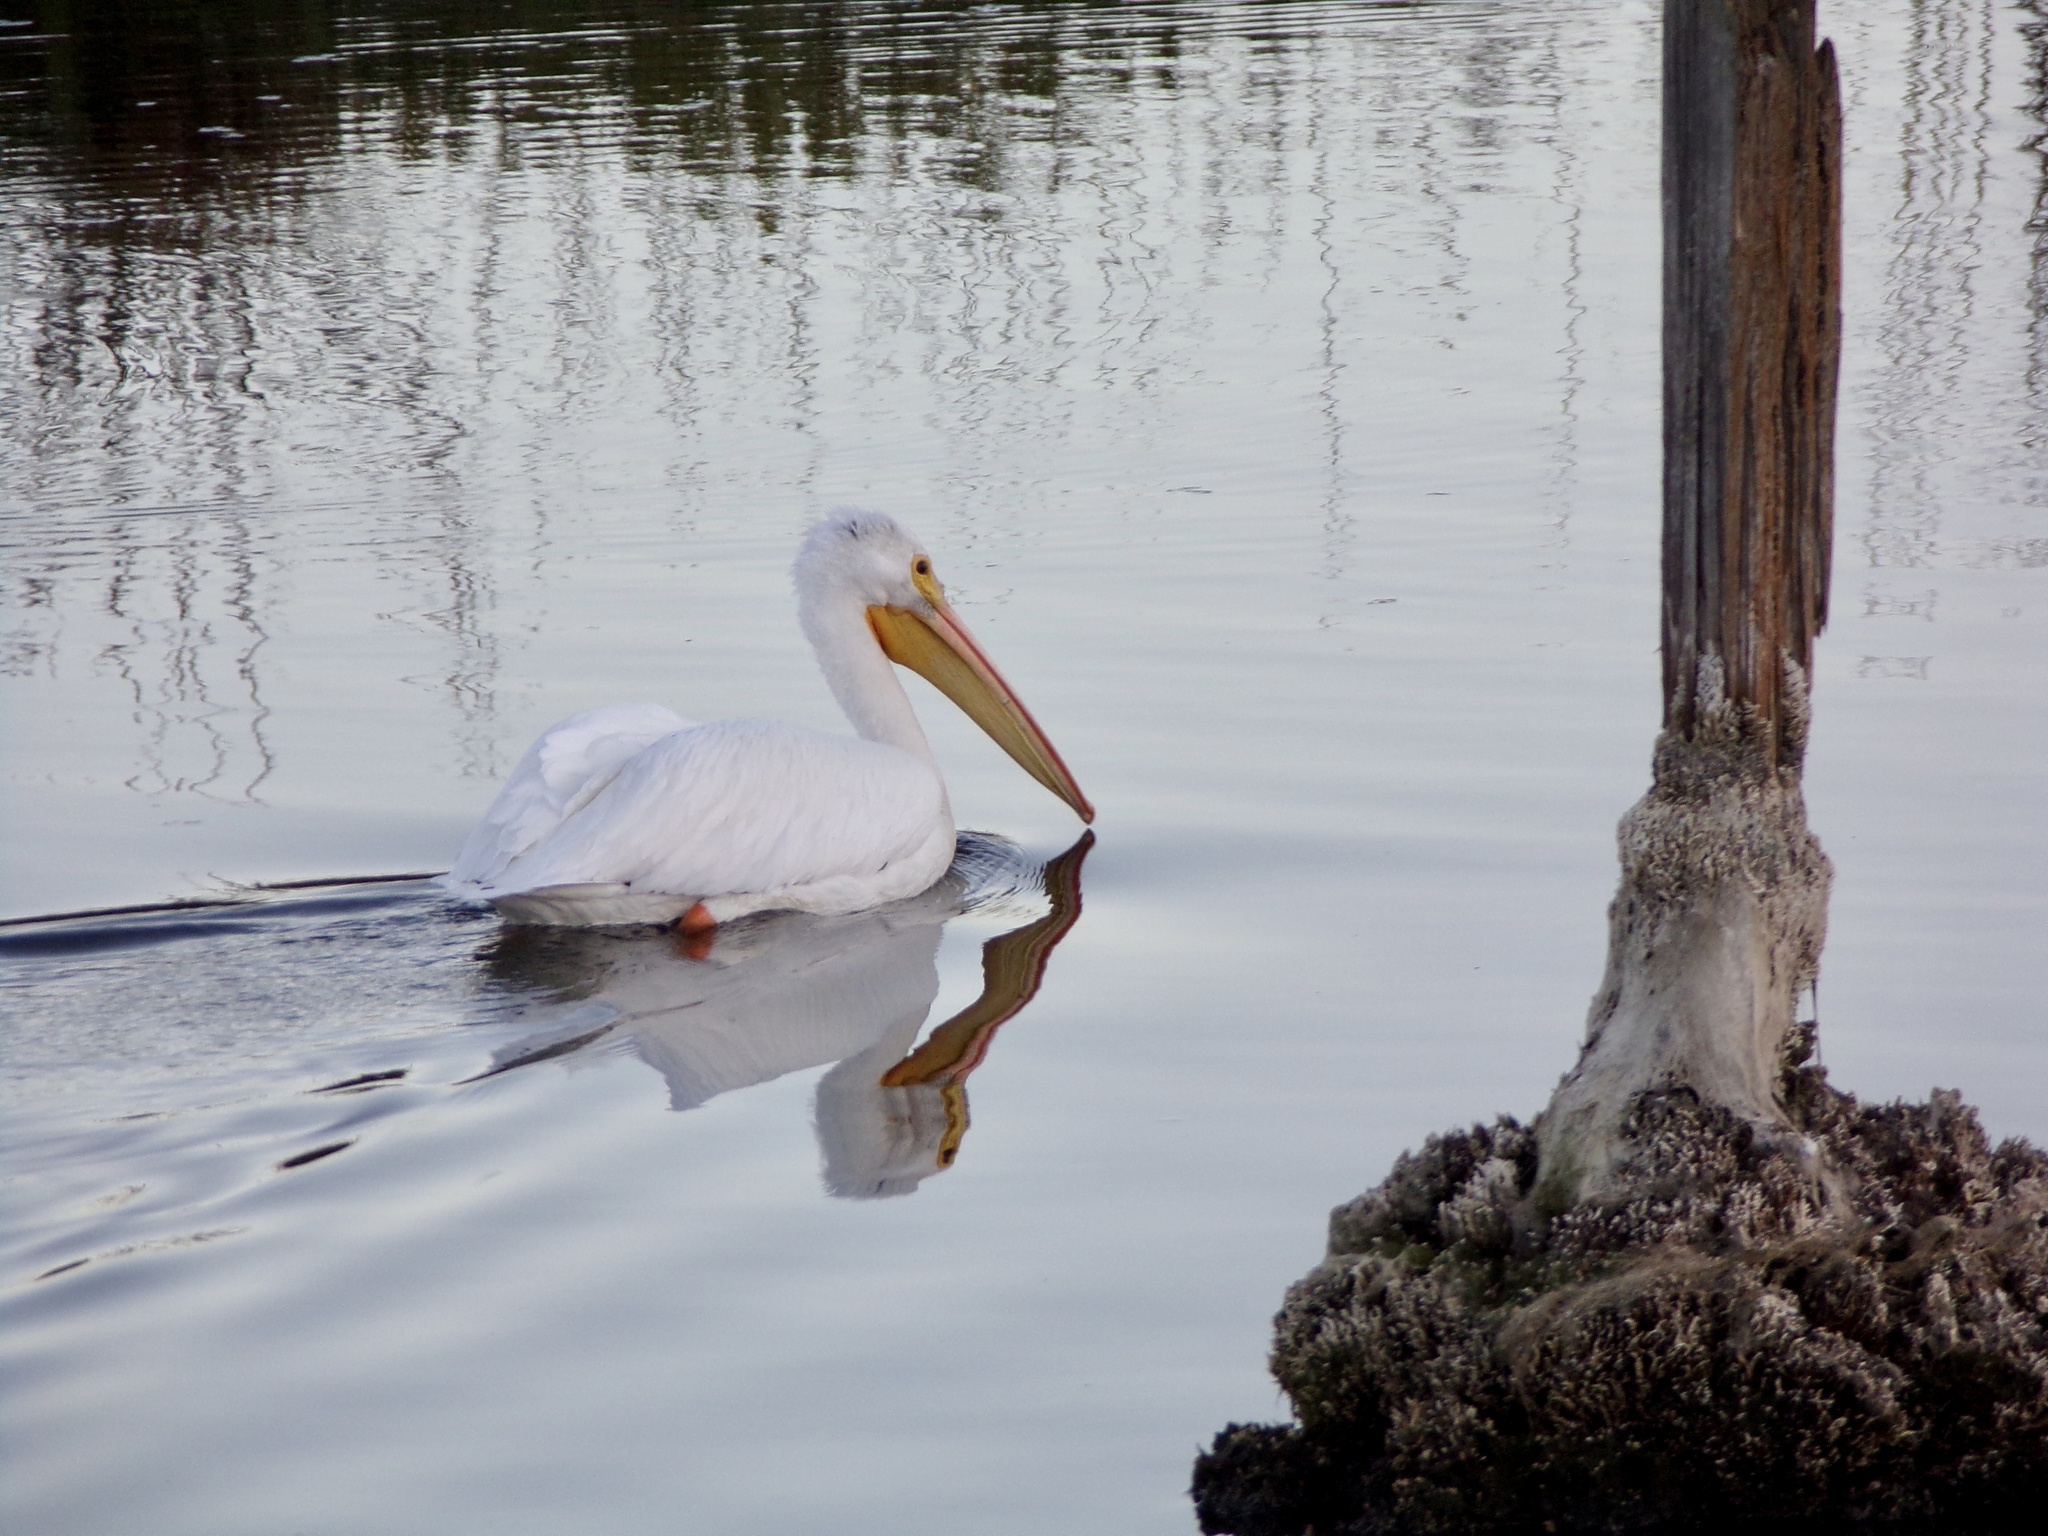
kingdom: Animalia
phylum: Chordata
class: Aves
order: Pelecaniformes
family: Pelecanidae
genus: Pelecanus
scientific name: Pelecanus erythrorhynchos
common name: American white pelican
